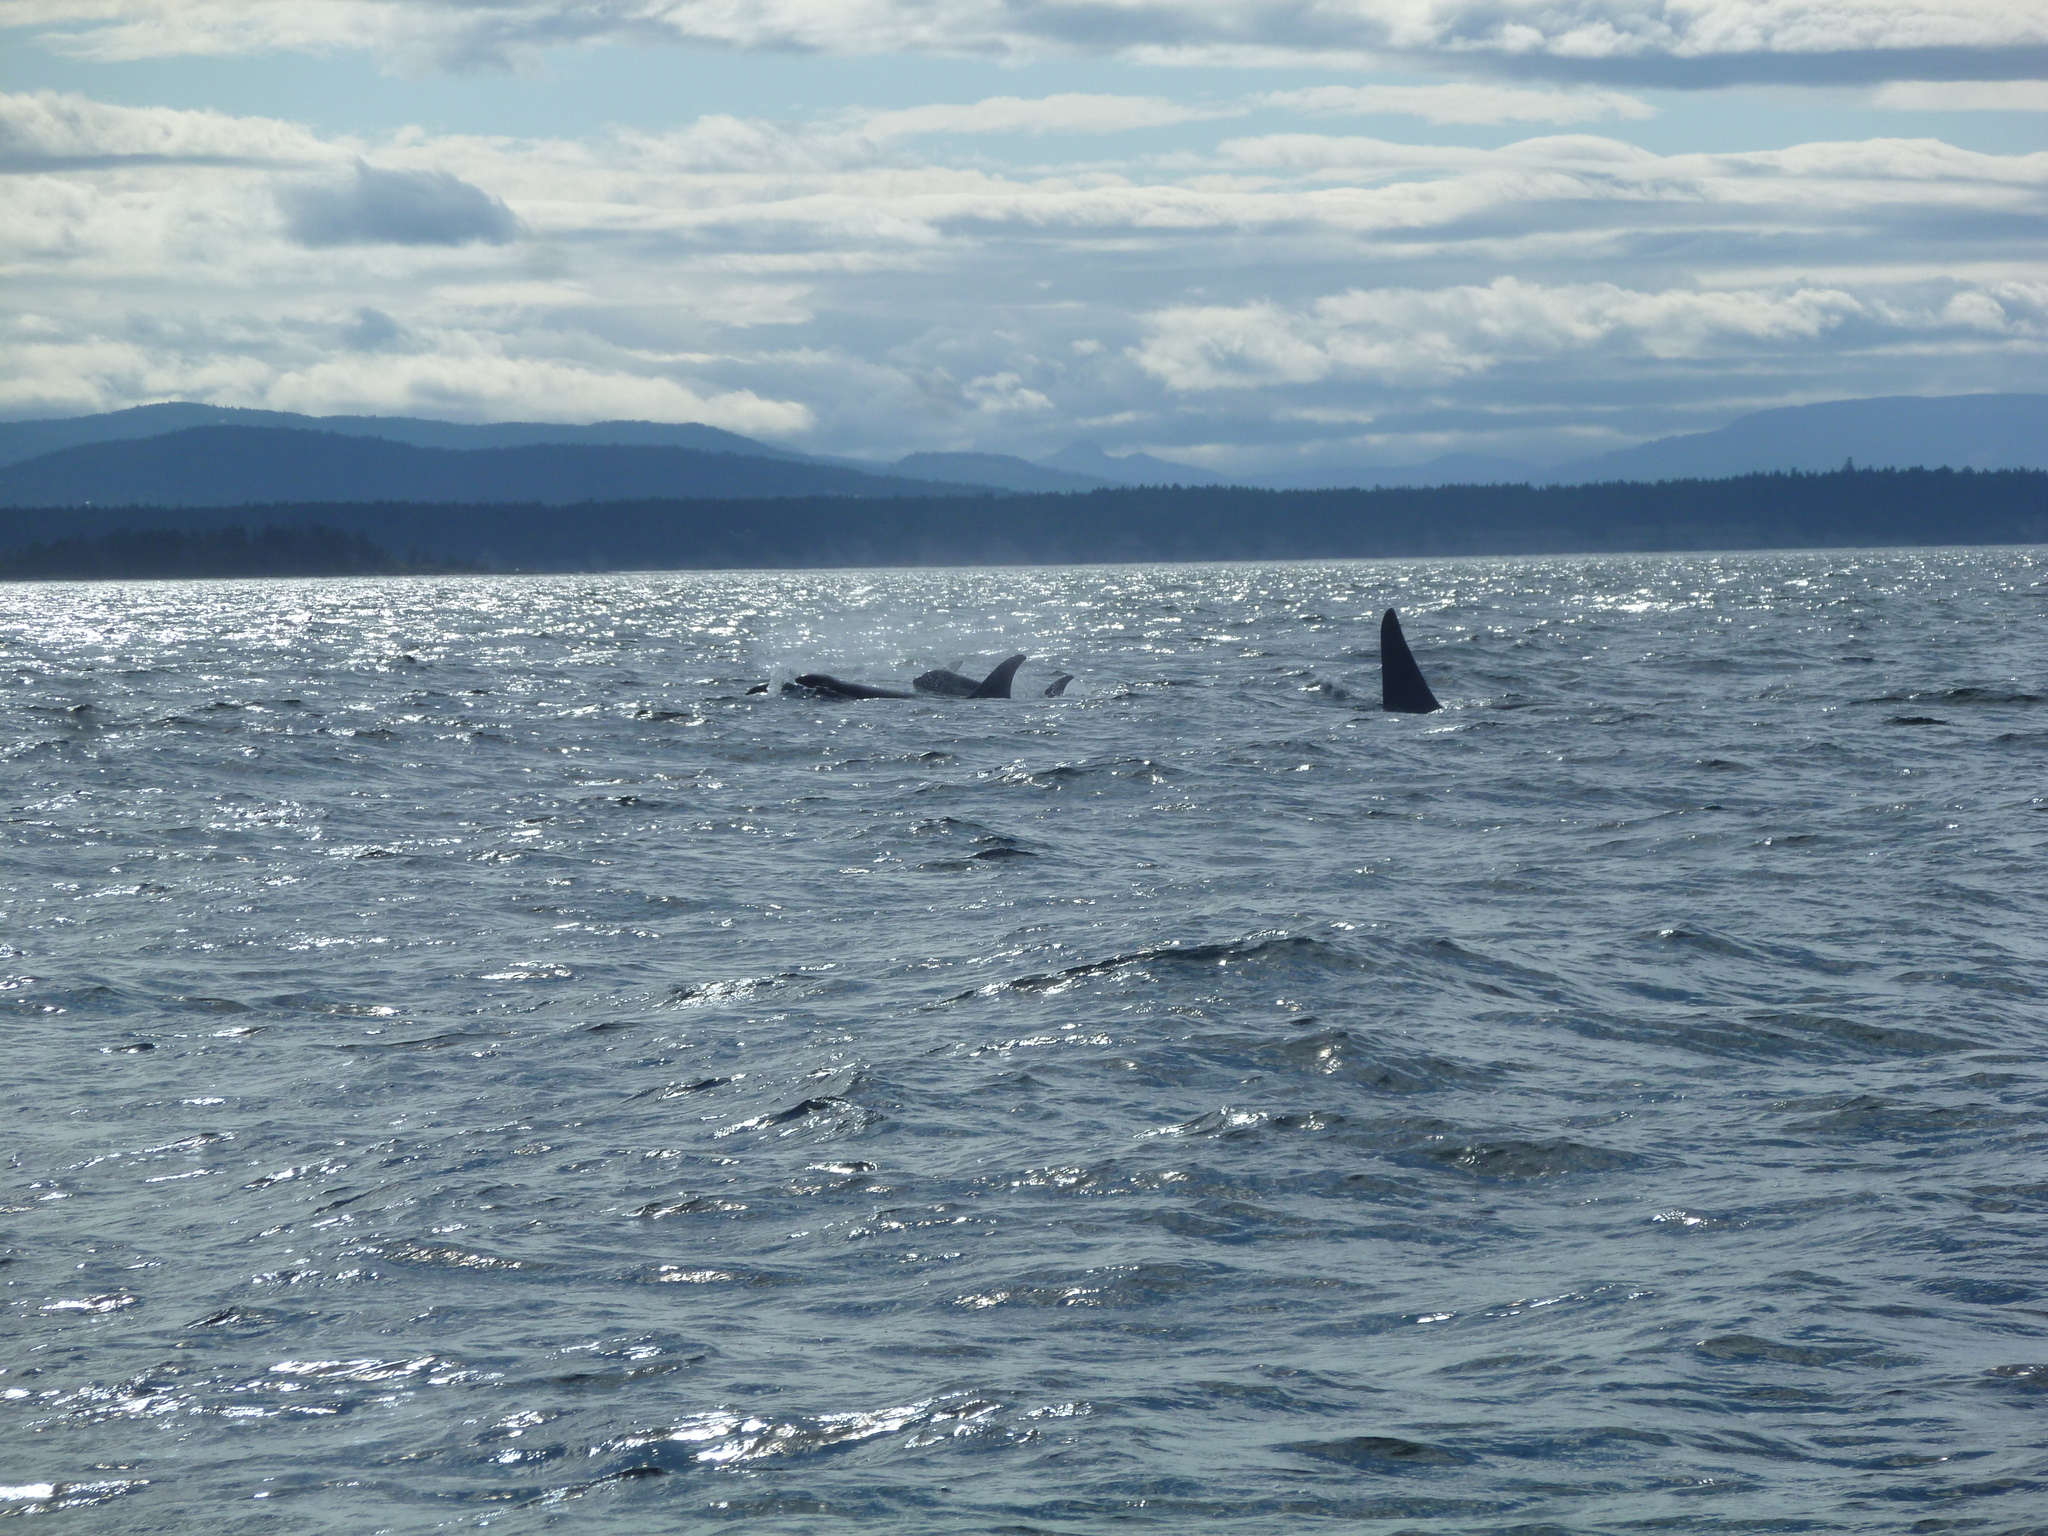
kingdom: Animalia
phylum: Chordata
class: Mammalia
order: Cetacea
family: Delphinidae
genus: Orcinus
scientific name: Orcinus orca
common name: Killer whale
